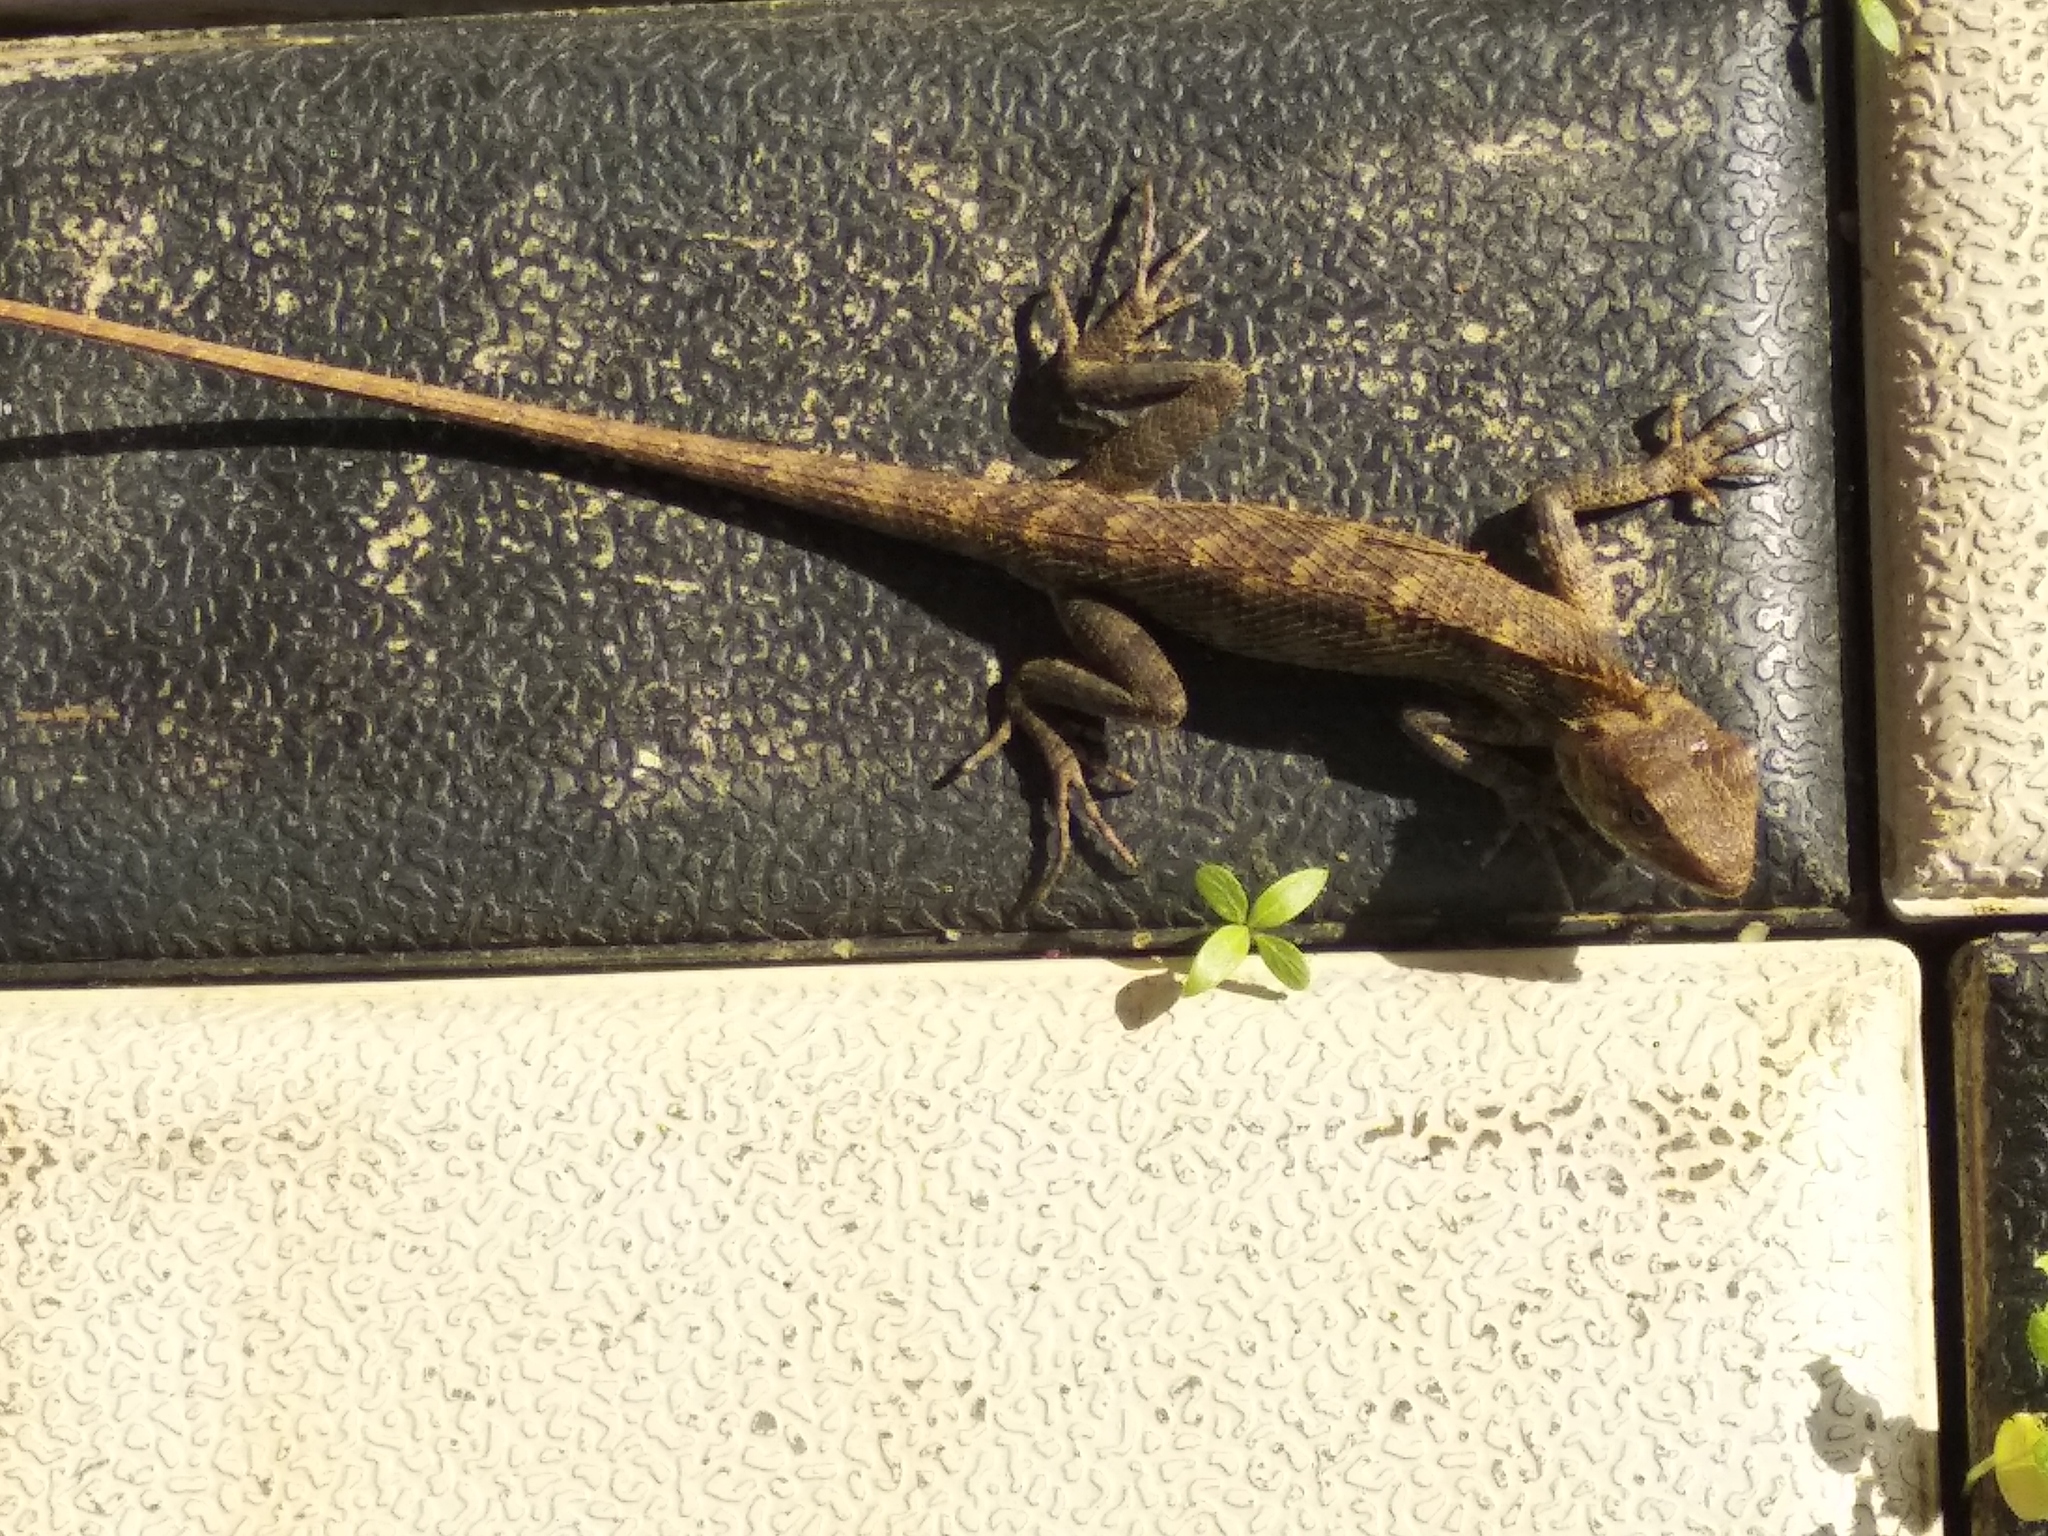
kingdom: Animalia
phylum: Chordata
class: Squamata
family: Agamidae
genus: Calotes
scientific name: Calotes versicolor
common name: Oriental garden lizard
